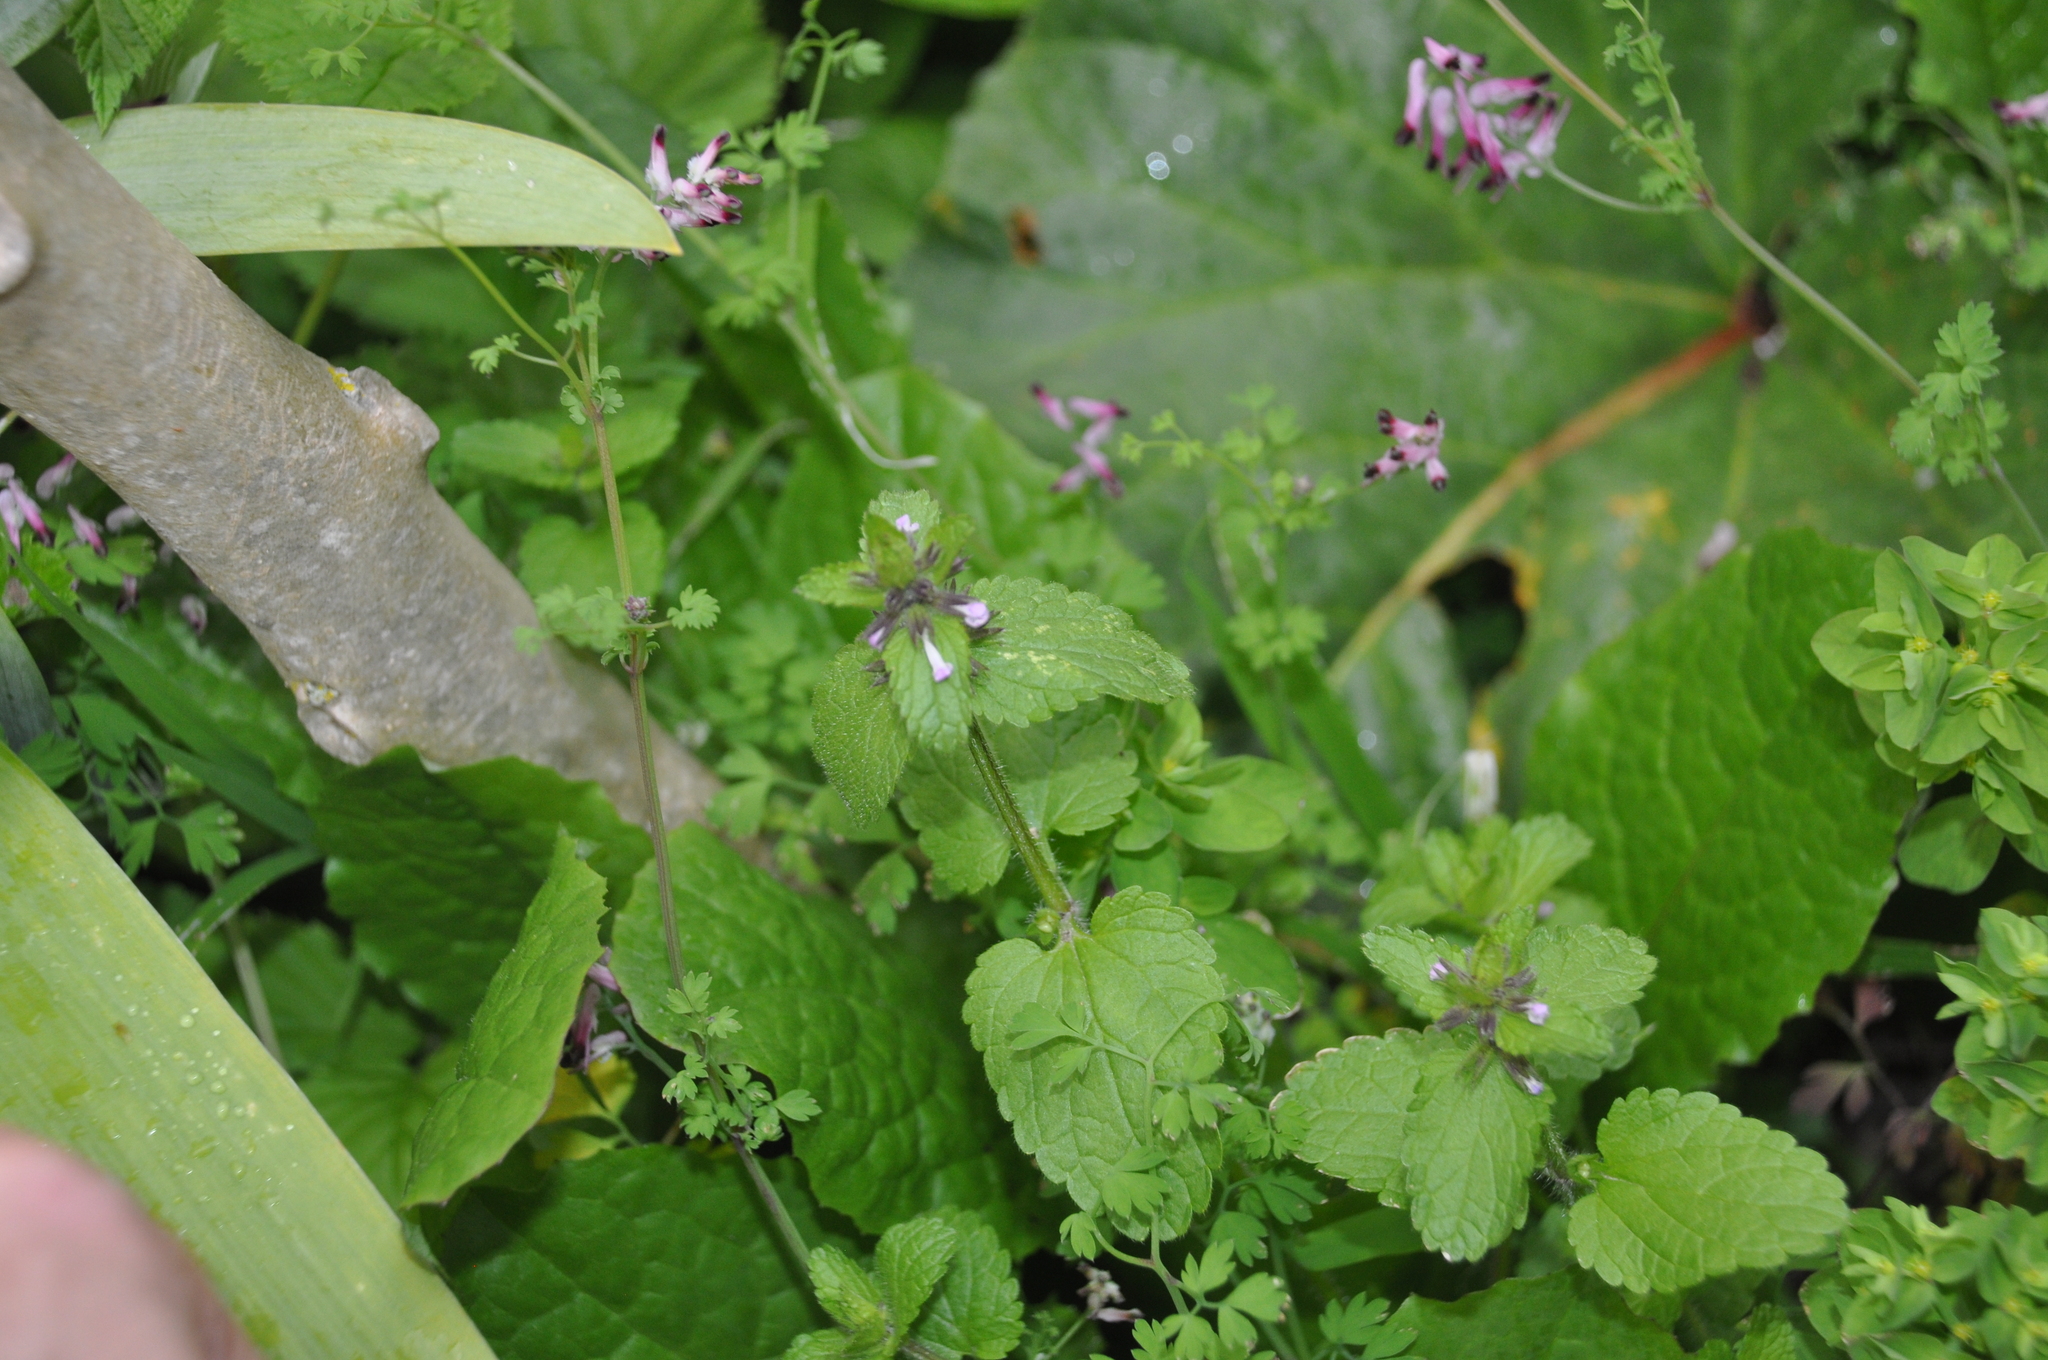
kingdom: Plantae
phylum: Tracheophyta
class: Magnoliopsida
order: Lamiales
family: Lamiaceae
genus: Stachys
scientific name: Stachys arvensis
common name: Field woundwort
